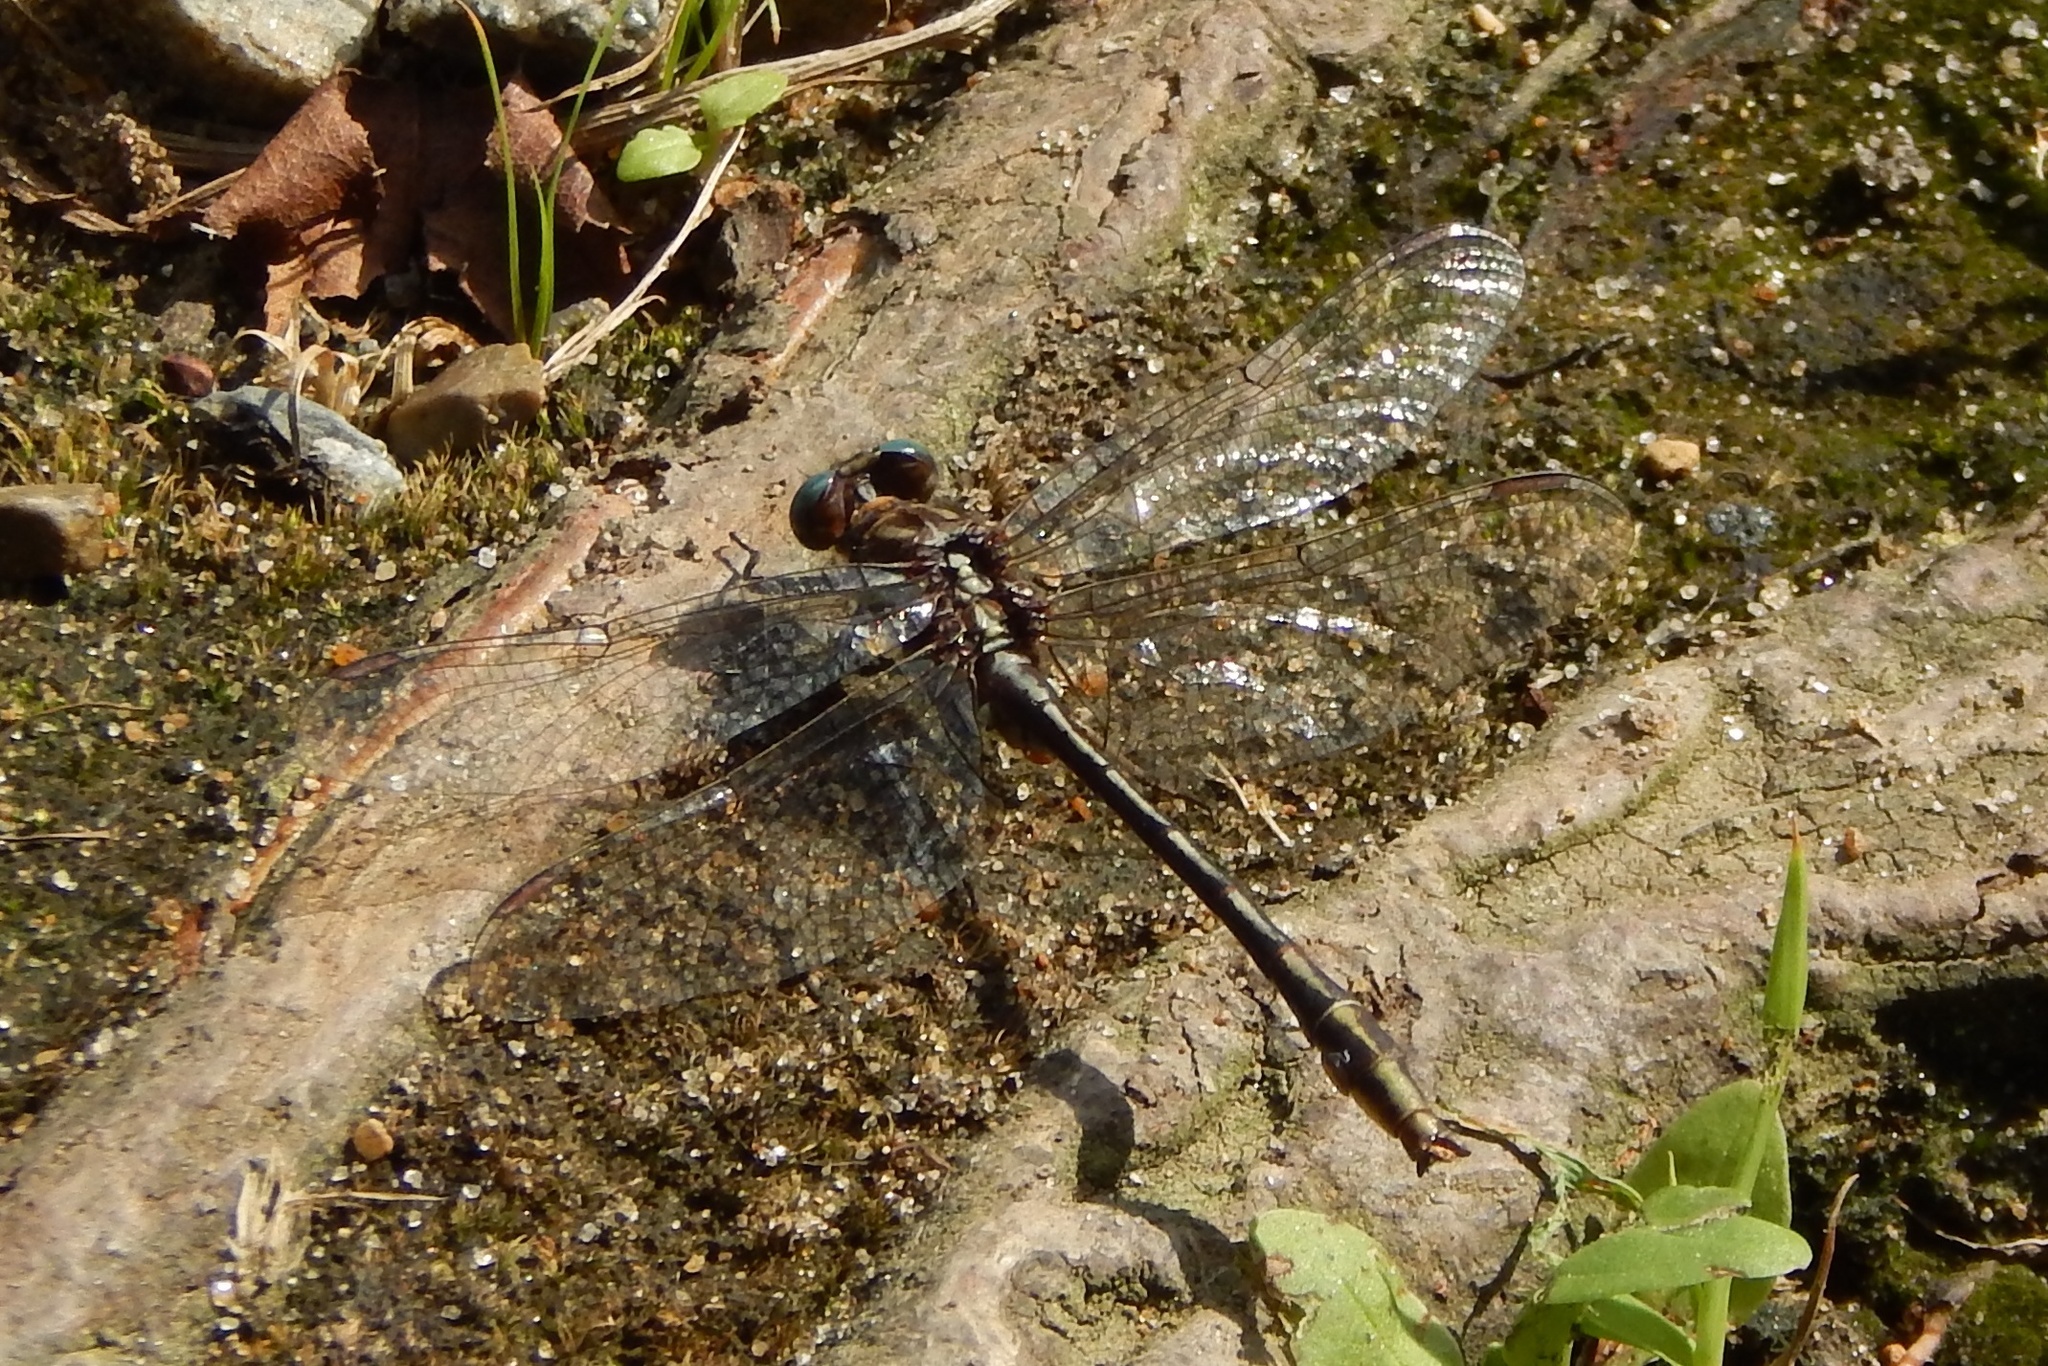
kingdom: Animalia
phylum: Arthropoda
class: Insecta
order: Odonata
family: Gomphidae
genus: Phanogomphus
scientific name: Phanogomphus exilis
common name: Lancet clubtail
